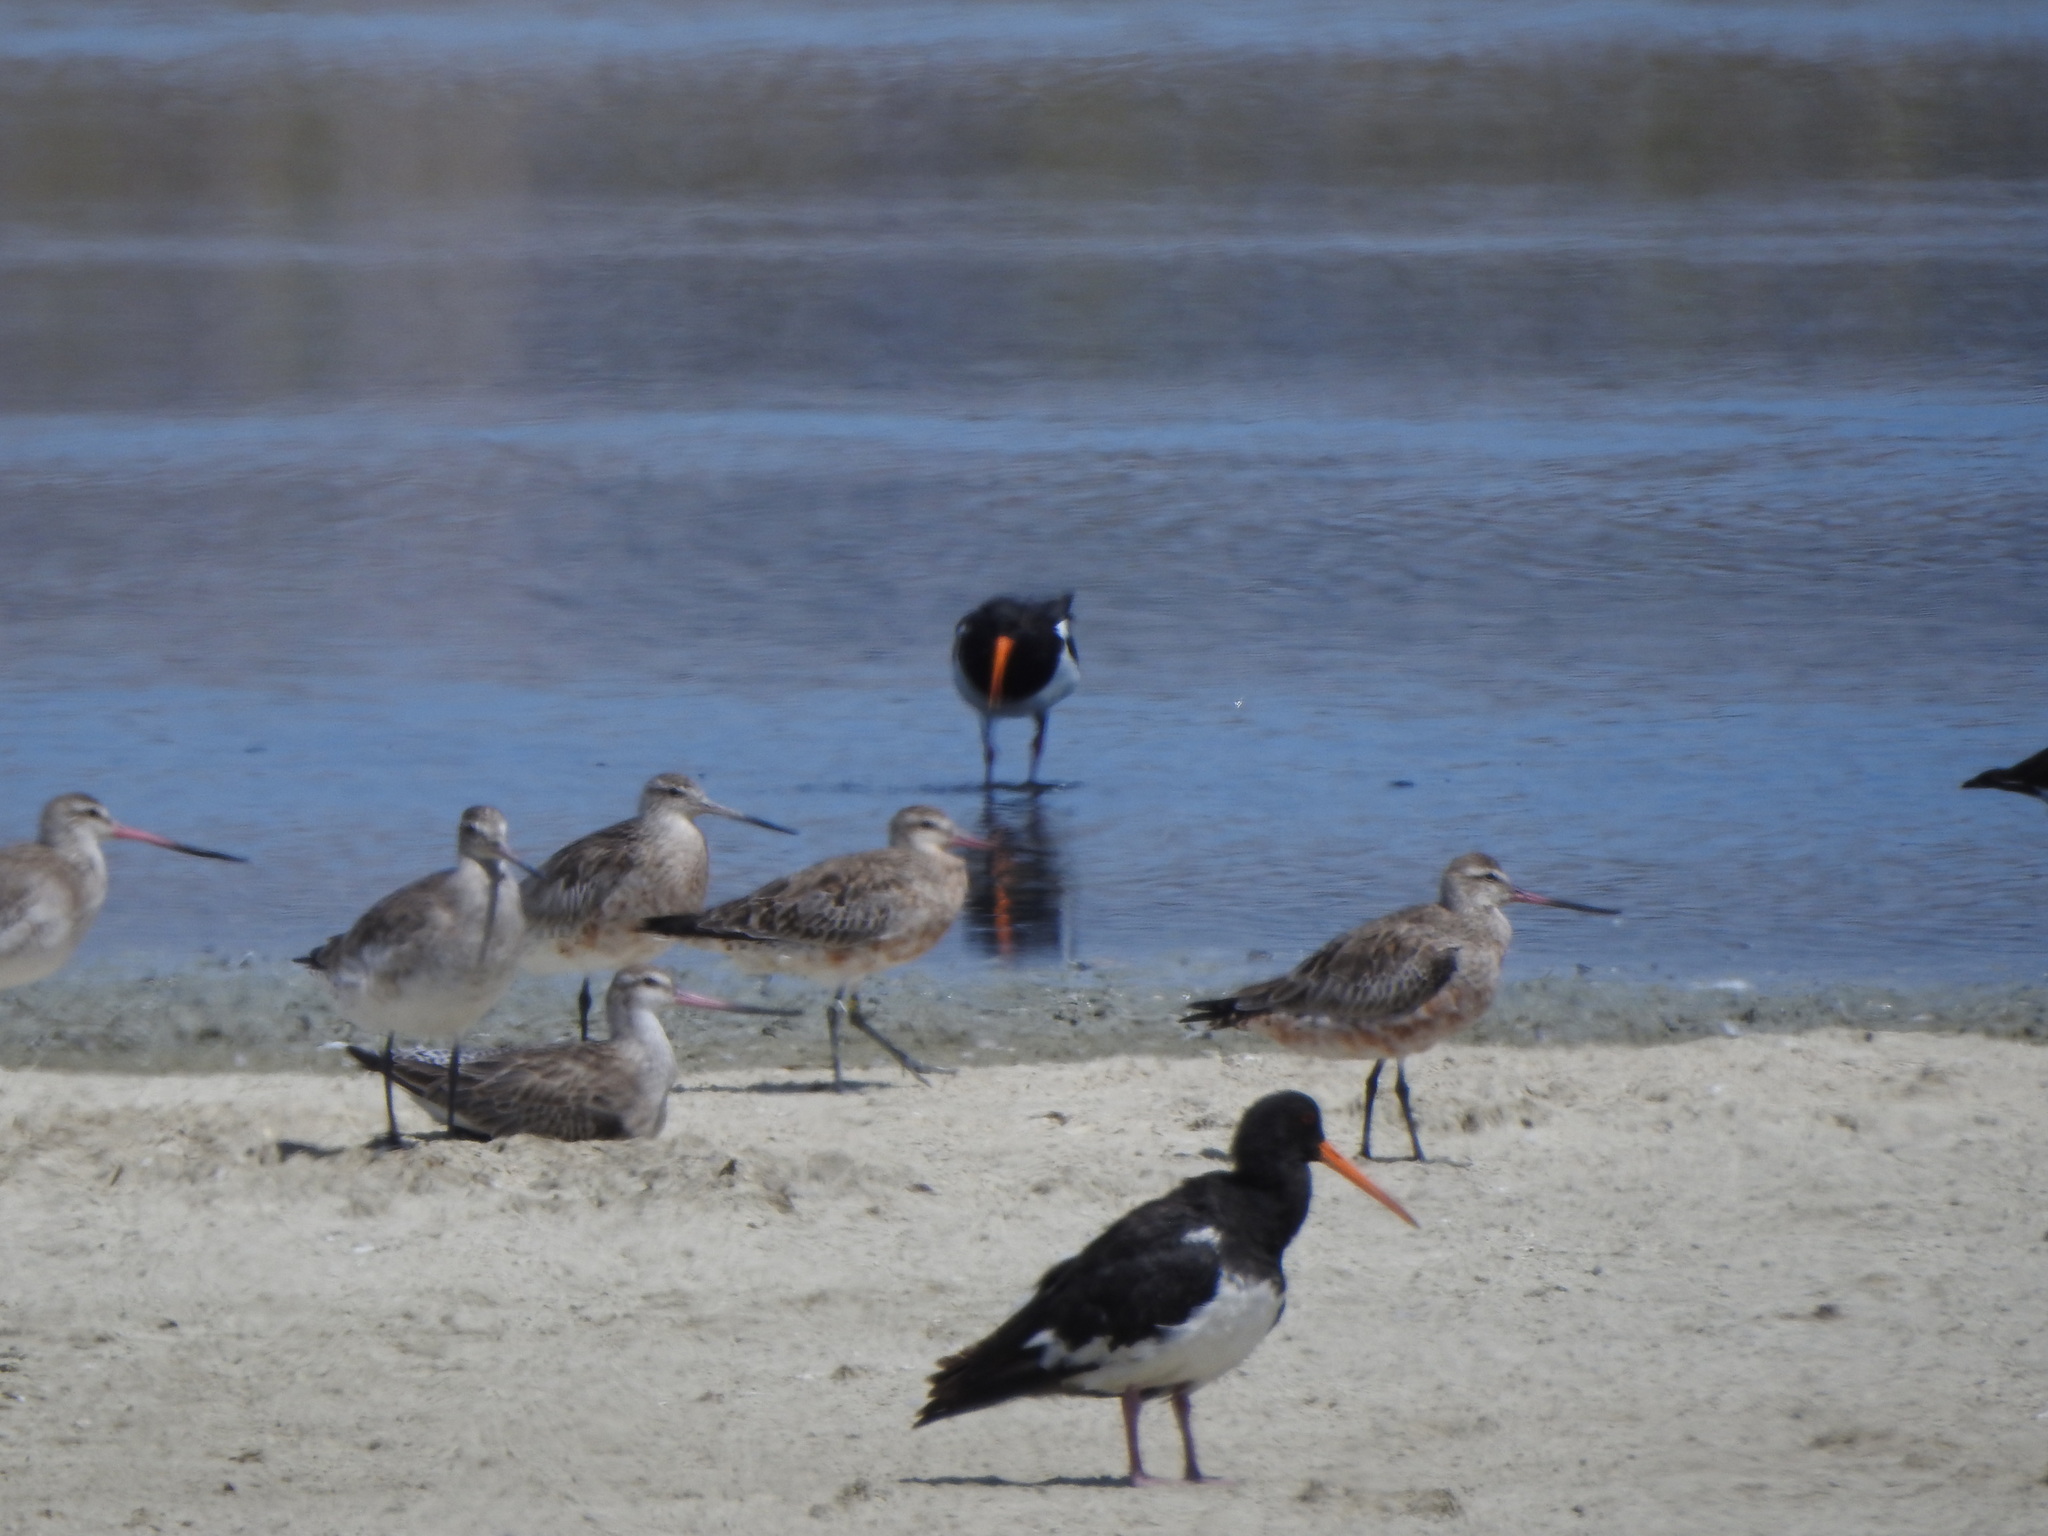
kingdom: Animalia
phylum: Chordata
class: Aves
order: Charadriiformes
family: Scolopacidae
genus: Limosa
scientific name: Limosa lapponica
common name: Bar-tailed godwit
